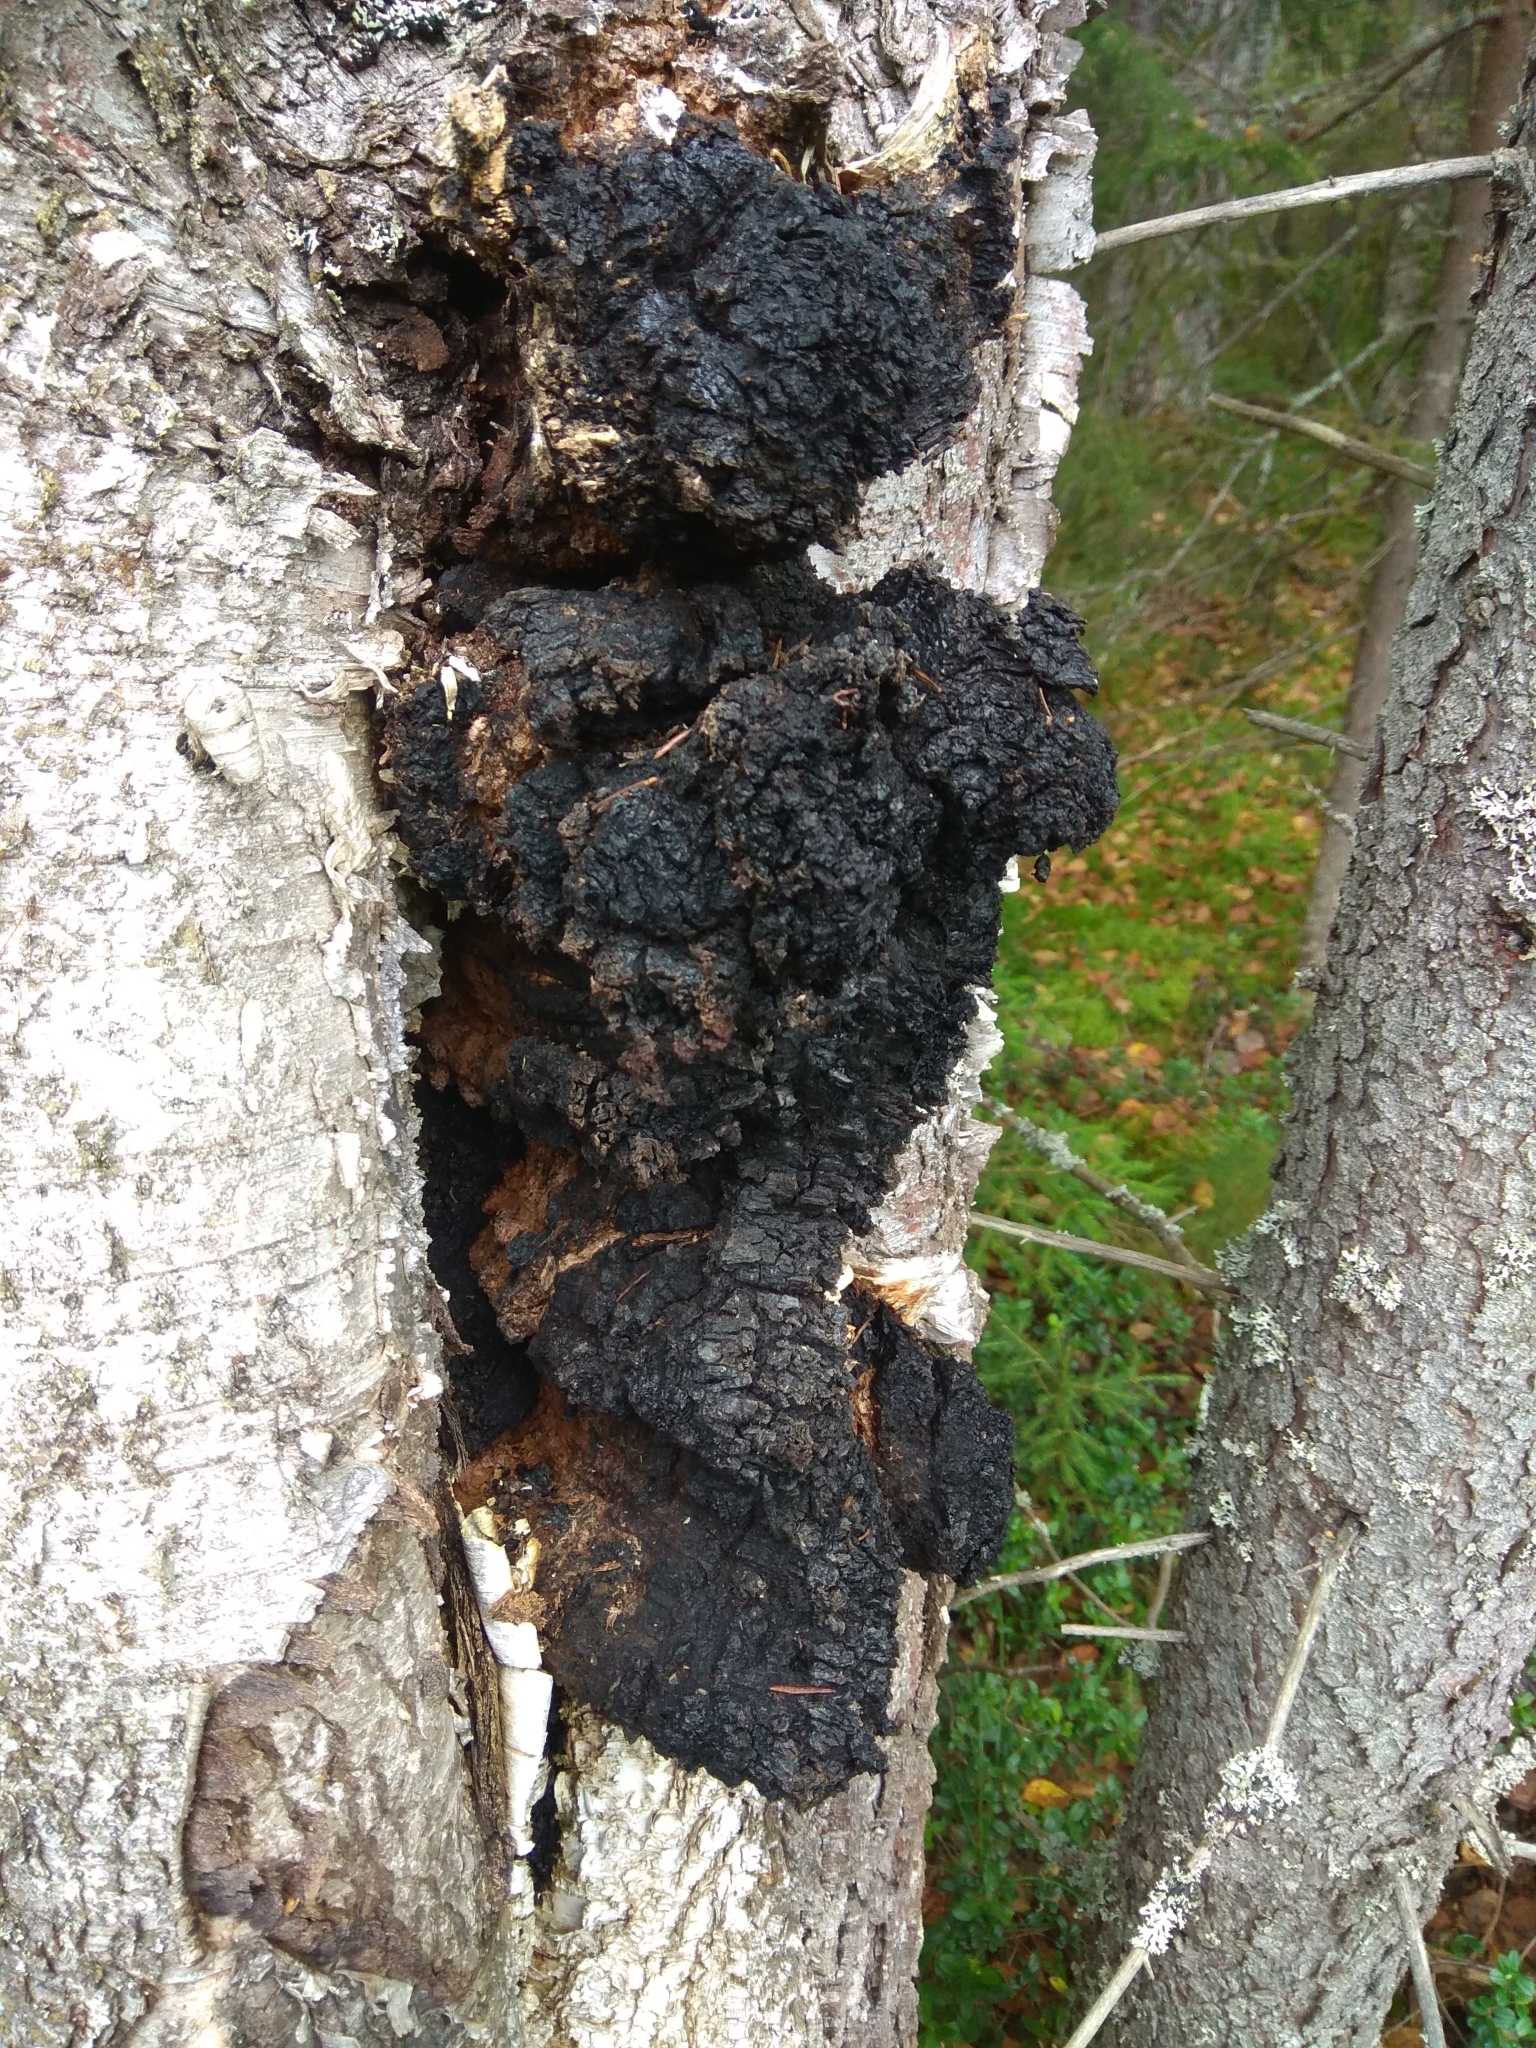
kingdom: Fungi
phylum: Basidiomycota
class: Agaricomycetes
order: Hymenochaetales
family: Hymenochaetaceae
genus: Inonotus
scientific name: Inonotus obliquus
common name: Chaga
